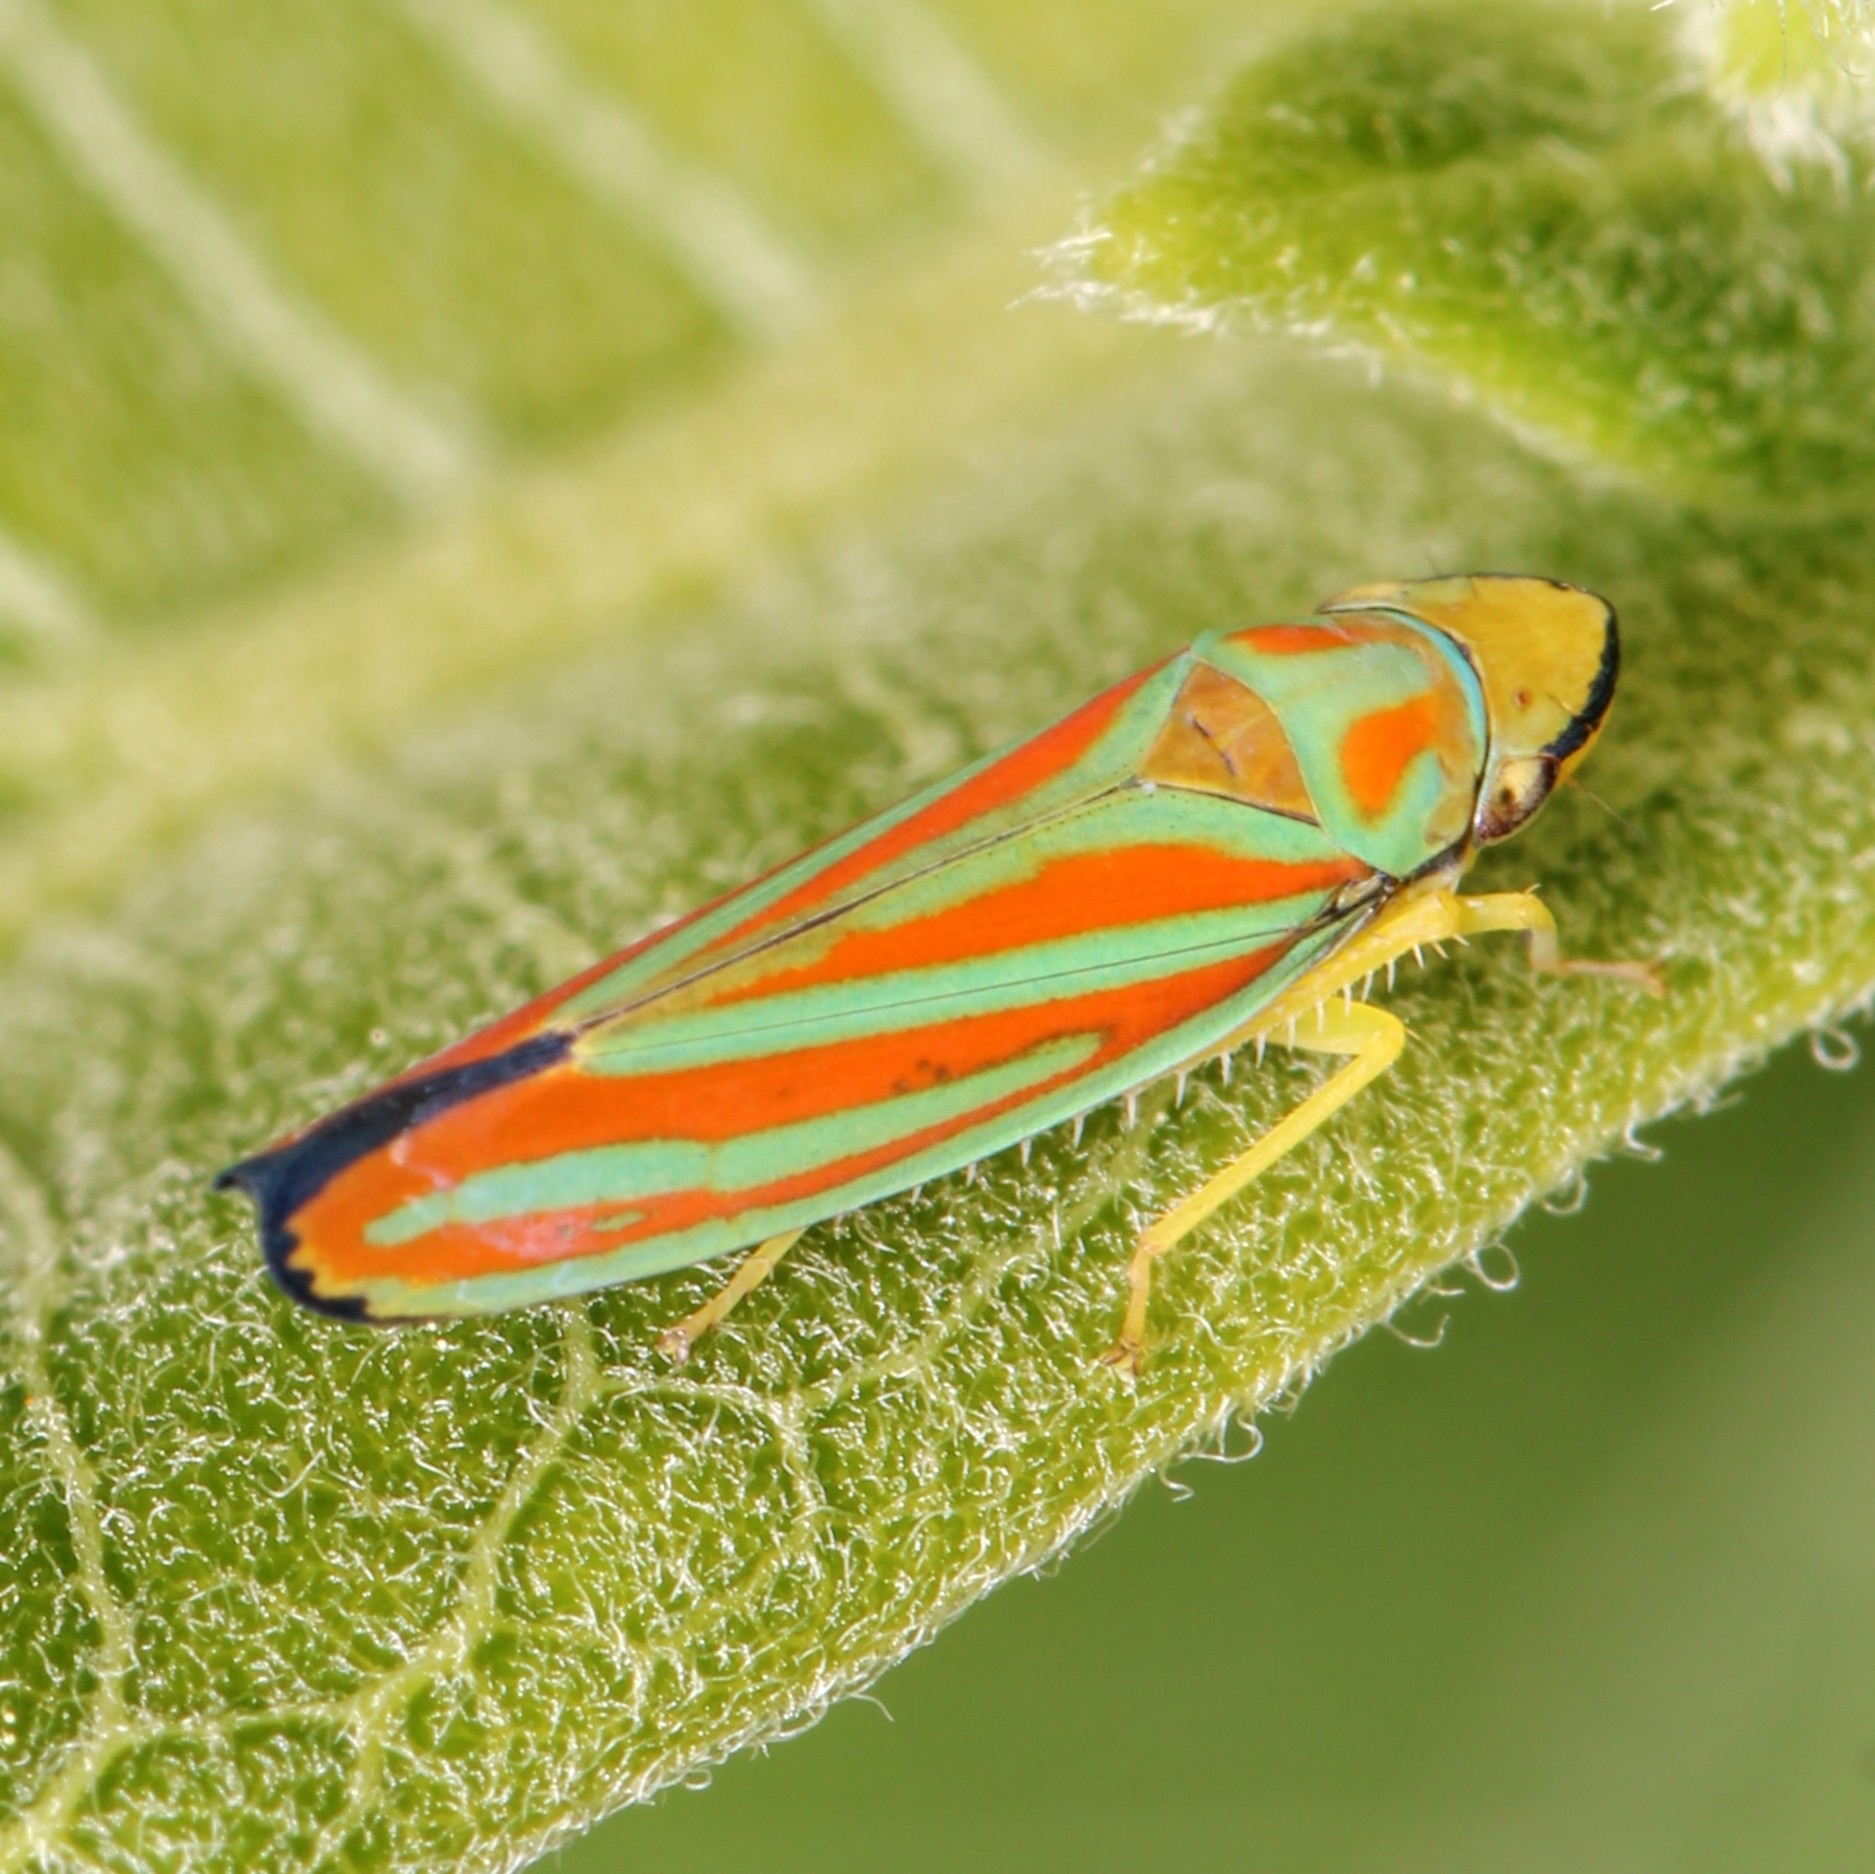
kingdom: Animalia
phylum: Arthropoda
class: Insecta
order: Hemiptera
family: Cicadellidae
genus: Graphocephala
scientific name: Graphocephala coccinea
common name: Candy-striped leafhopper
